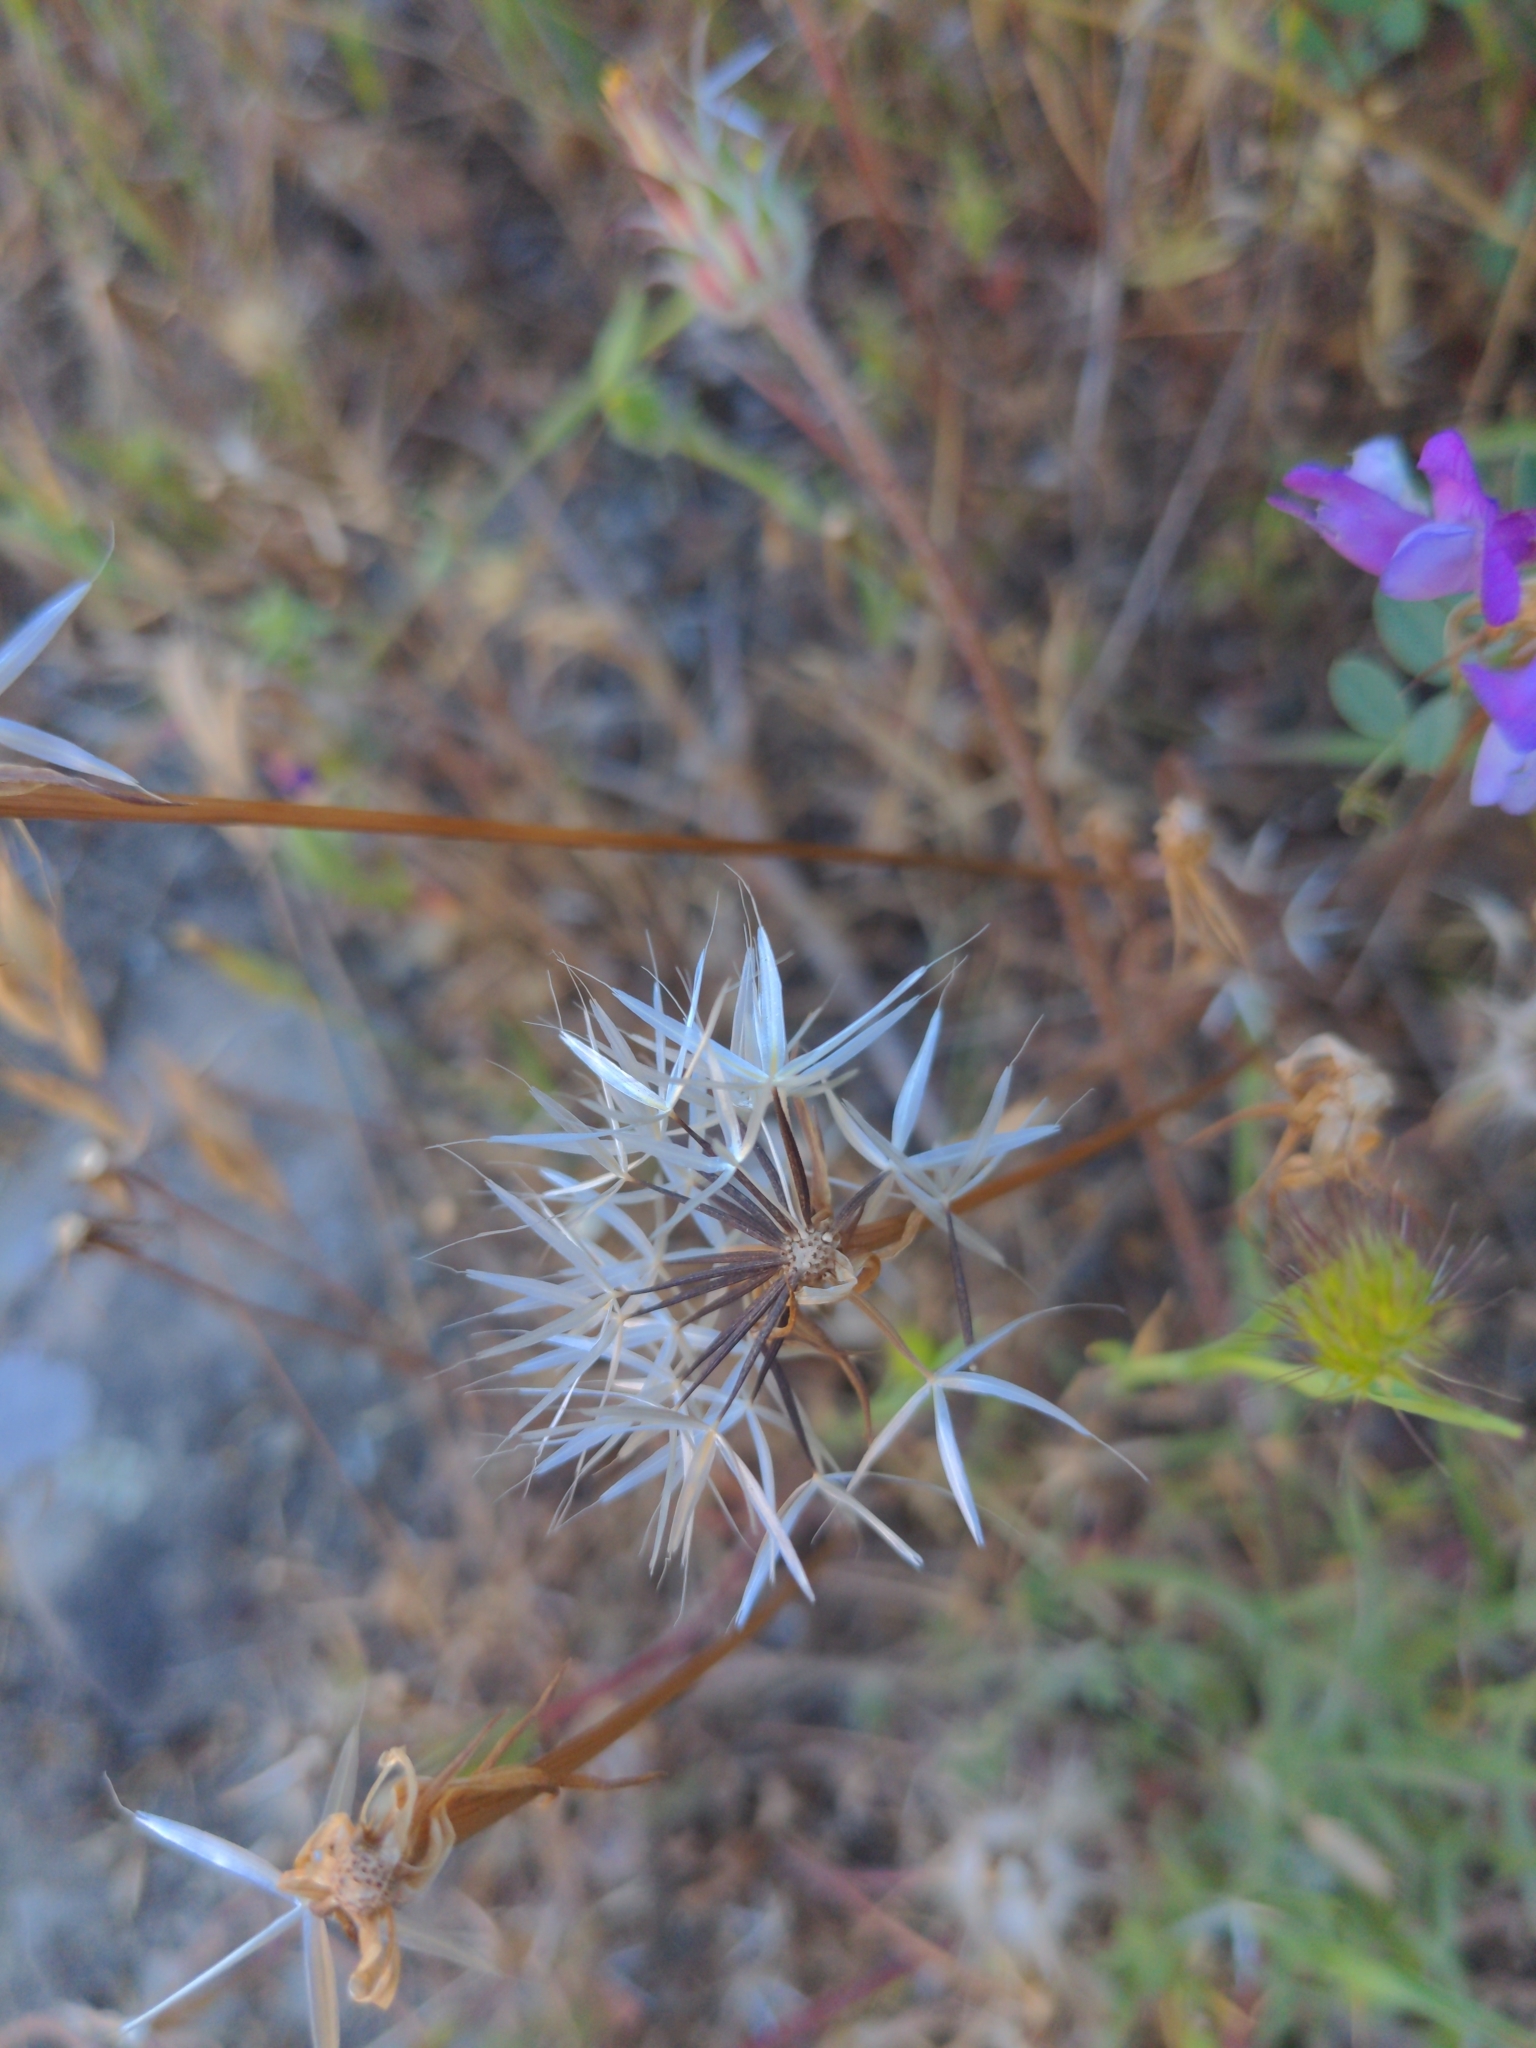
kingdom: Plantae
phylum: Tracheophyta
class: Magnoliopsida
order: Asterales
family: Asteraceae
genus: Microseris
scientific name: Microseris lindleyi
